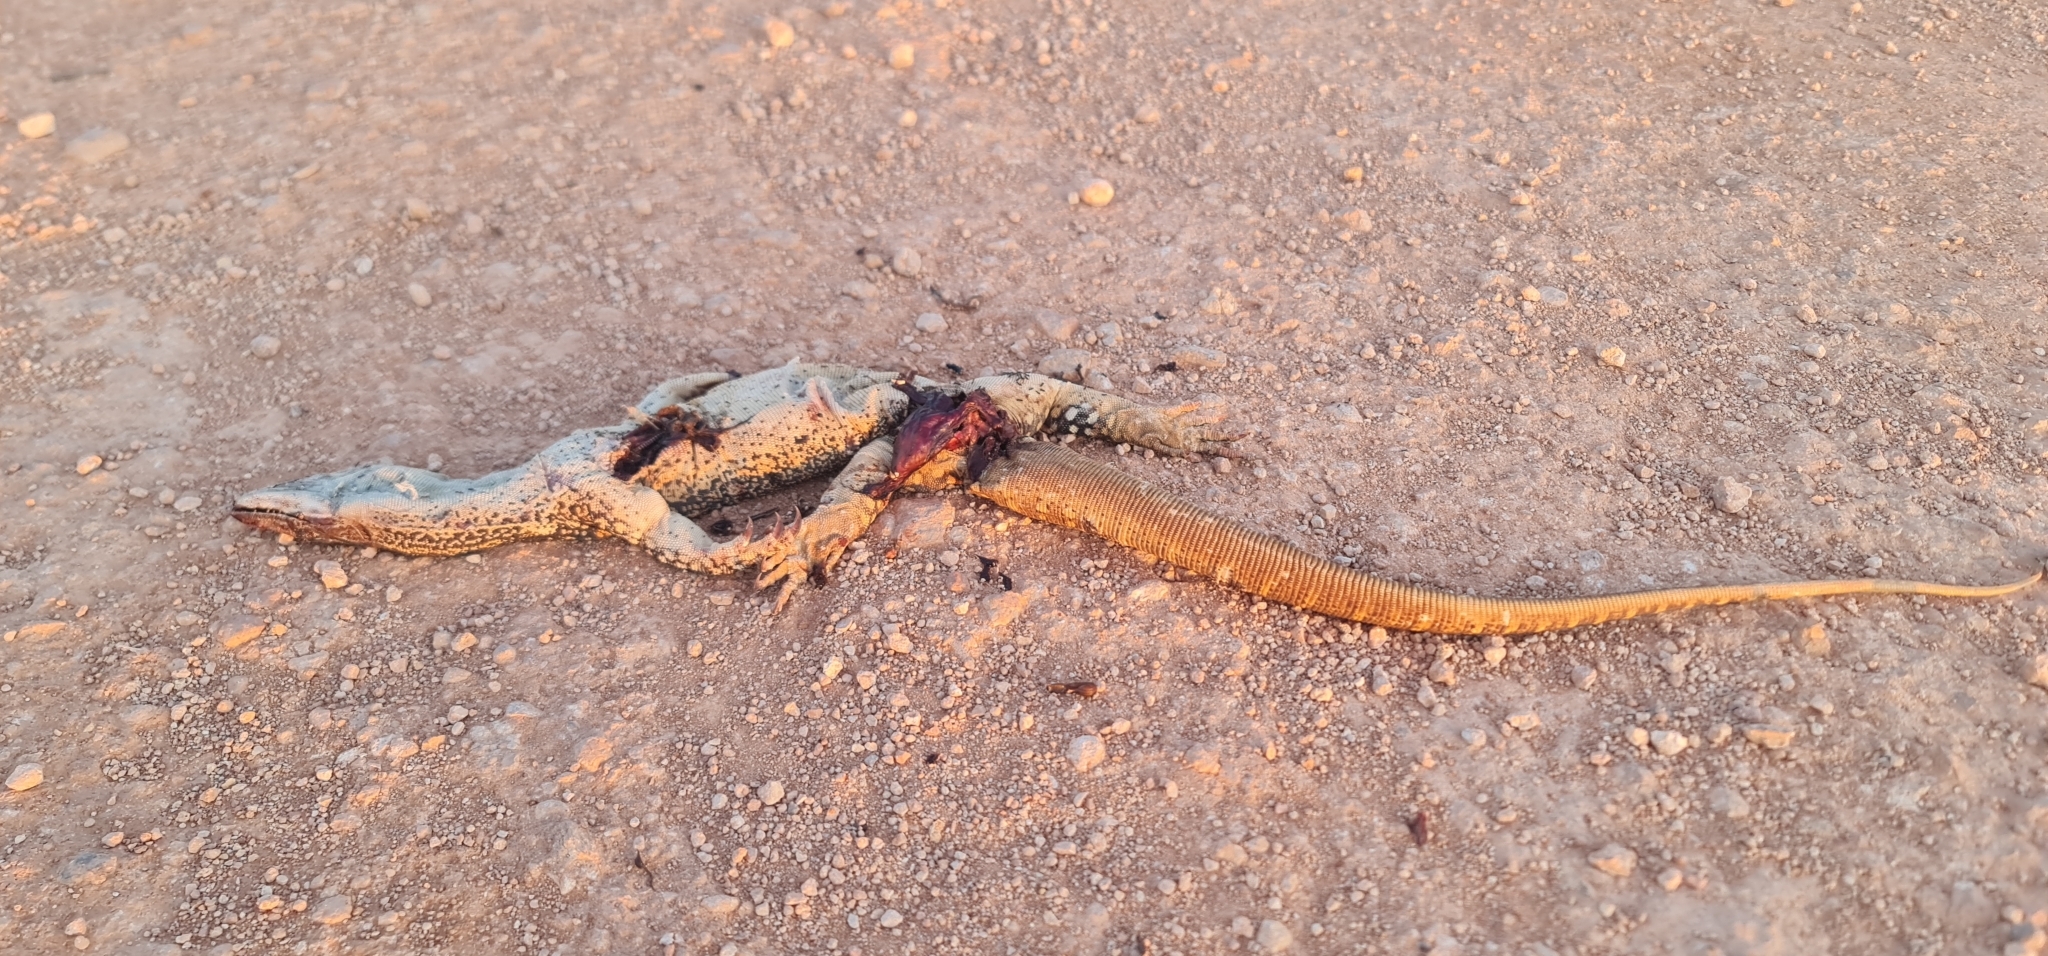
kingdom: Animalia
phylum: Chordata
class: Squamata
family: Varanidae
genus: Varanus
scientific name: Varanus gouldii
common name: Gould's goanna
